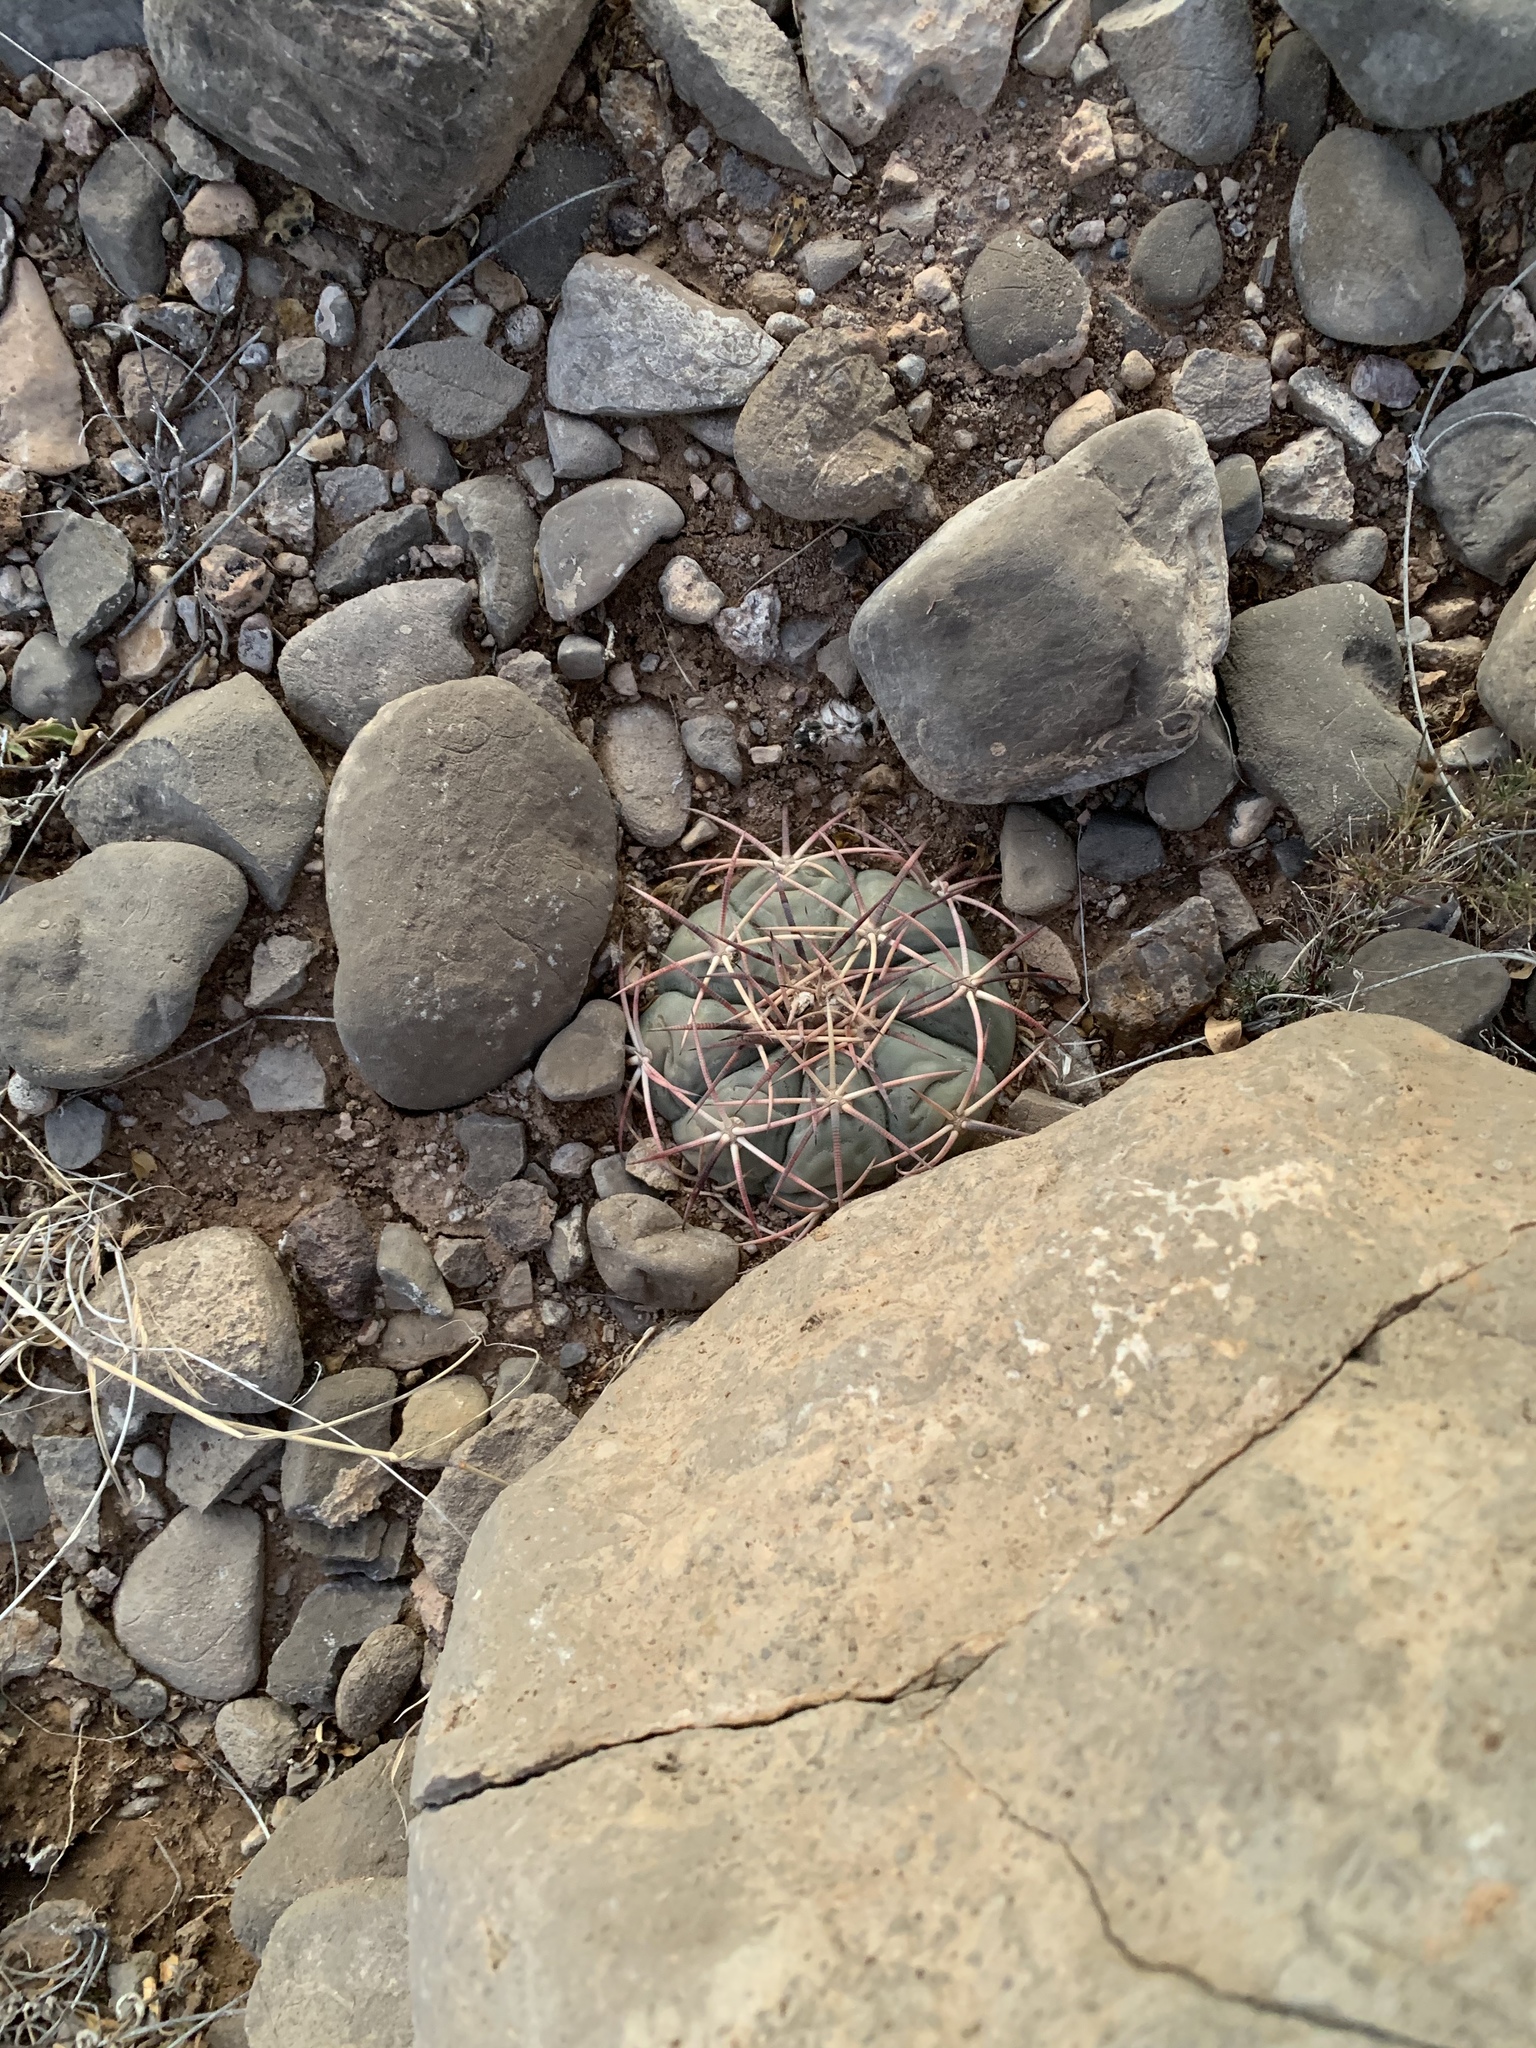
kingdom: Plantae
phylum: Tracheophyta
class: Magnoliopsida
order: Caryophyllales
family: Cactaceae
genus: Echinocactus
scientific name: Echinocactus horizonthalonius
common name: Devilshead
